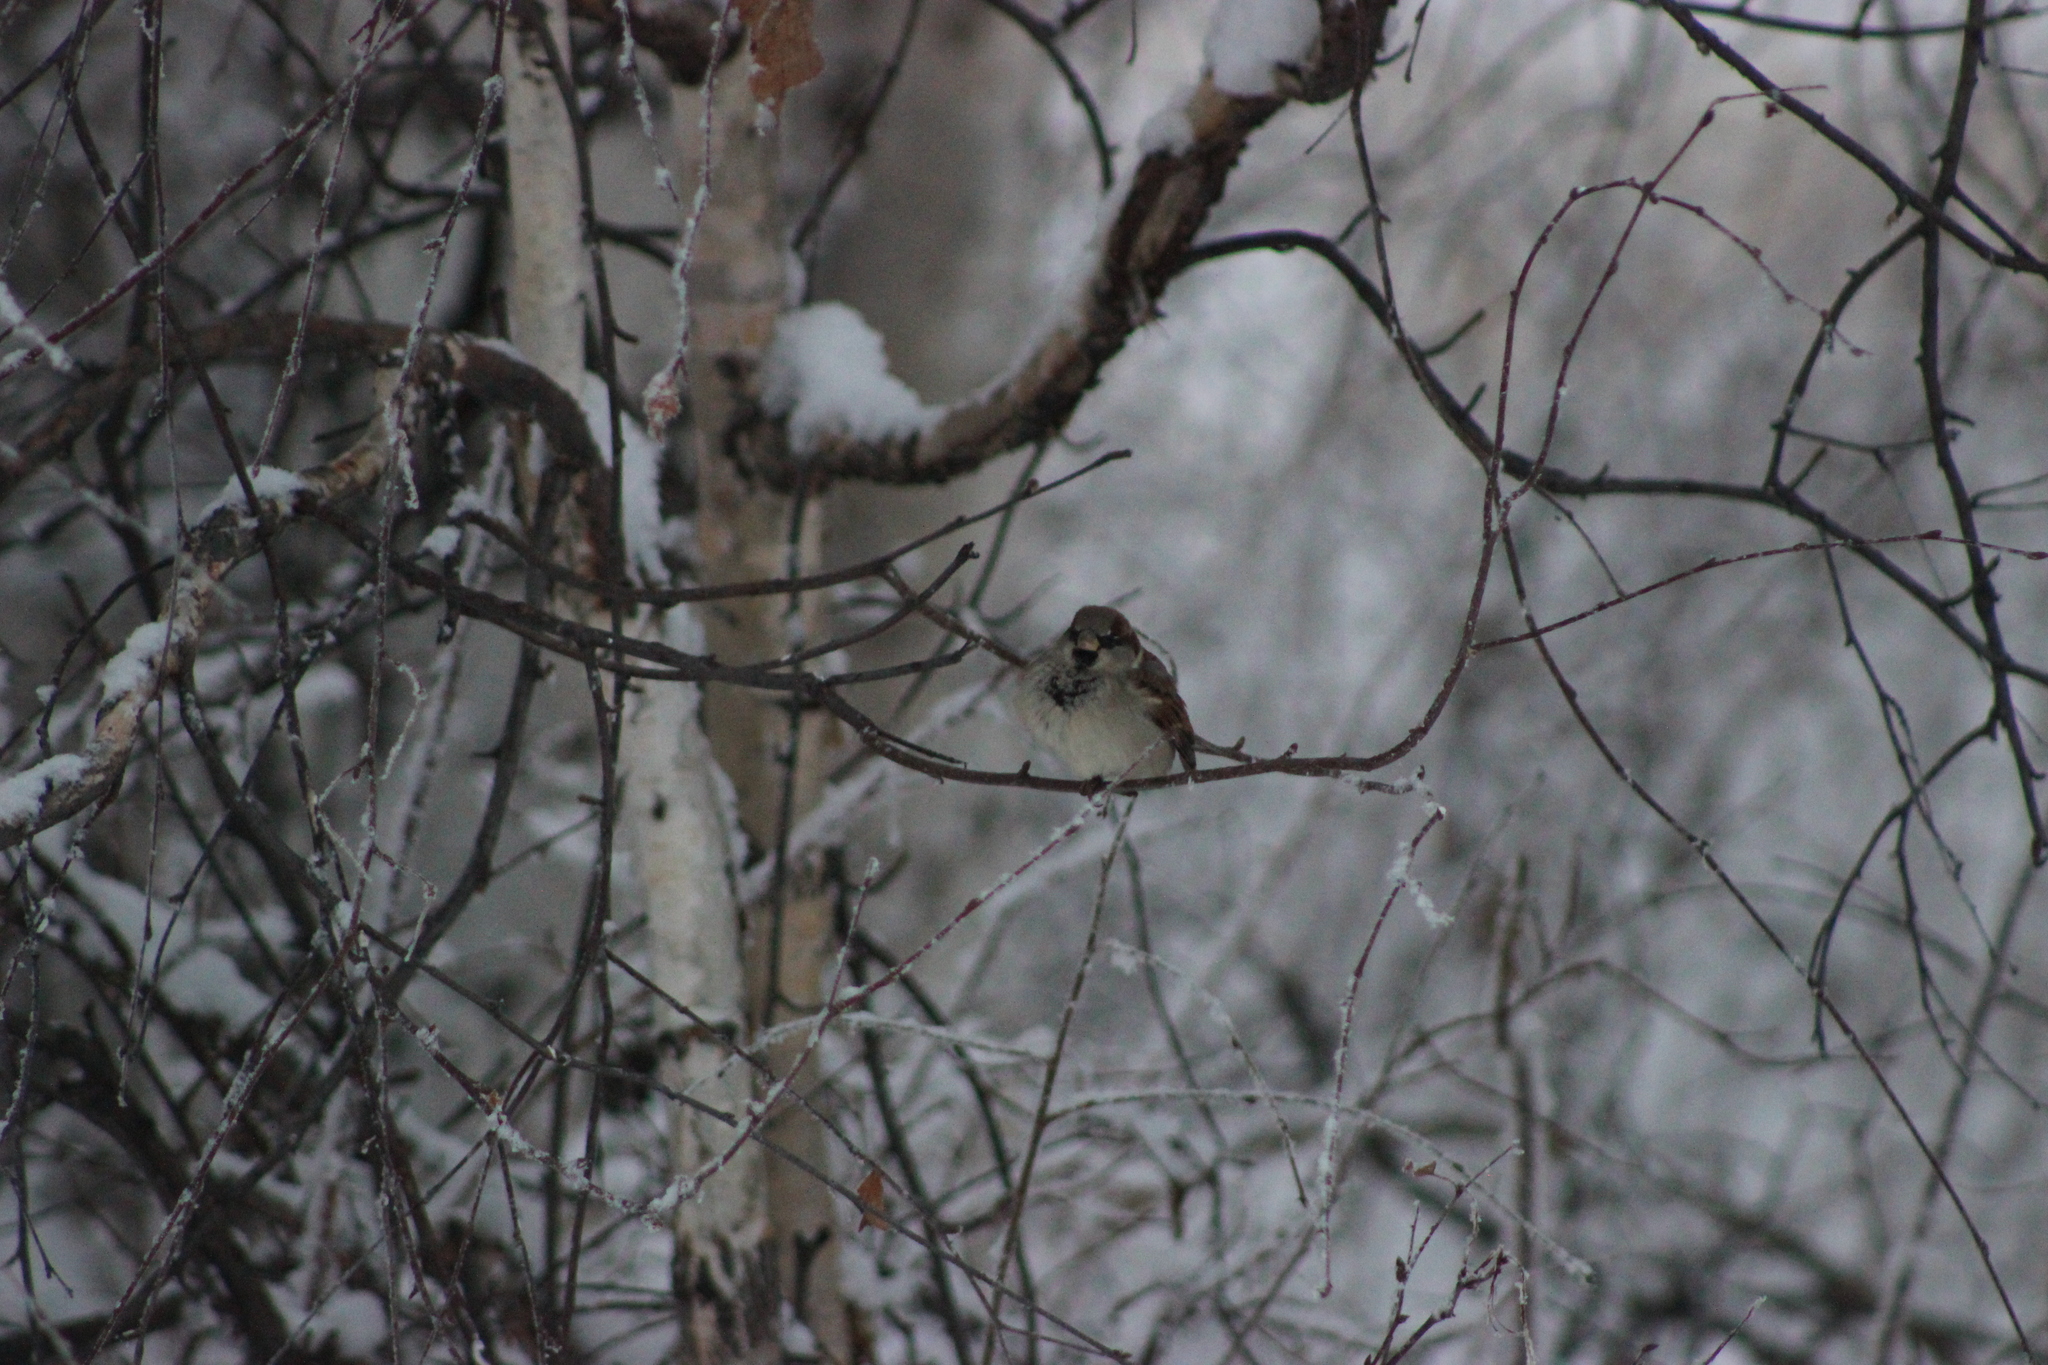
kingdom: Animalia
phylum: Chordata
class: Aves
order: Passeriformes
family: Passeridae
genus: Passer
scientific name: Passer domesticus
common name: House sparrow
